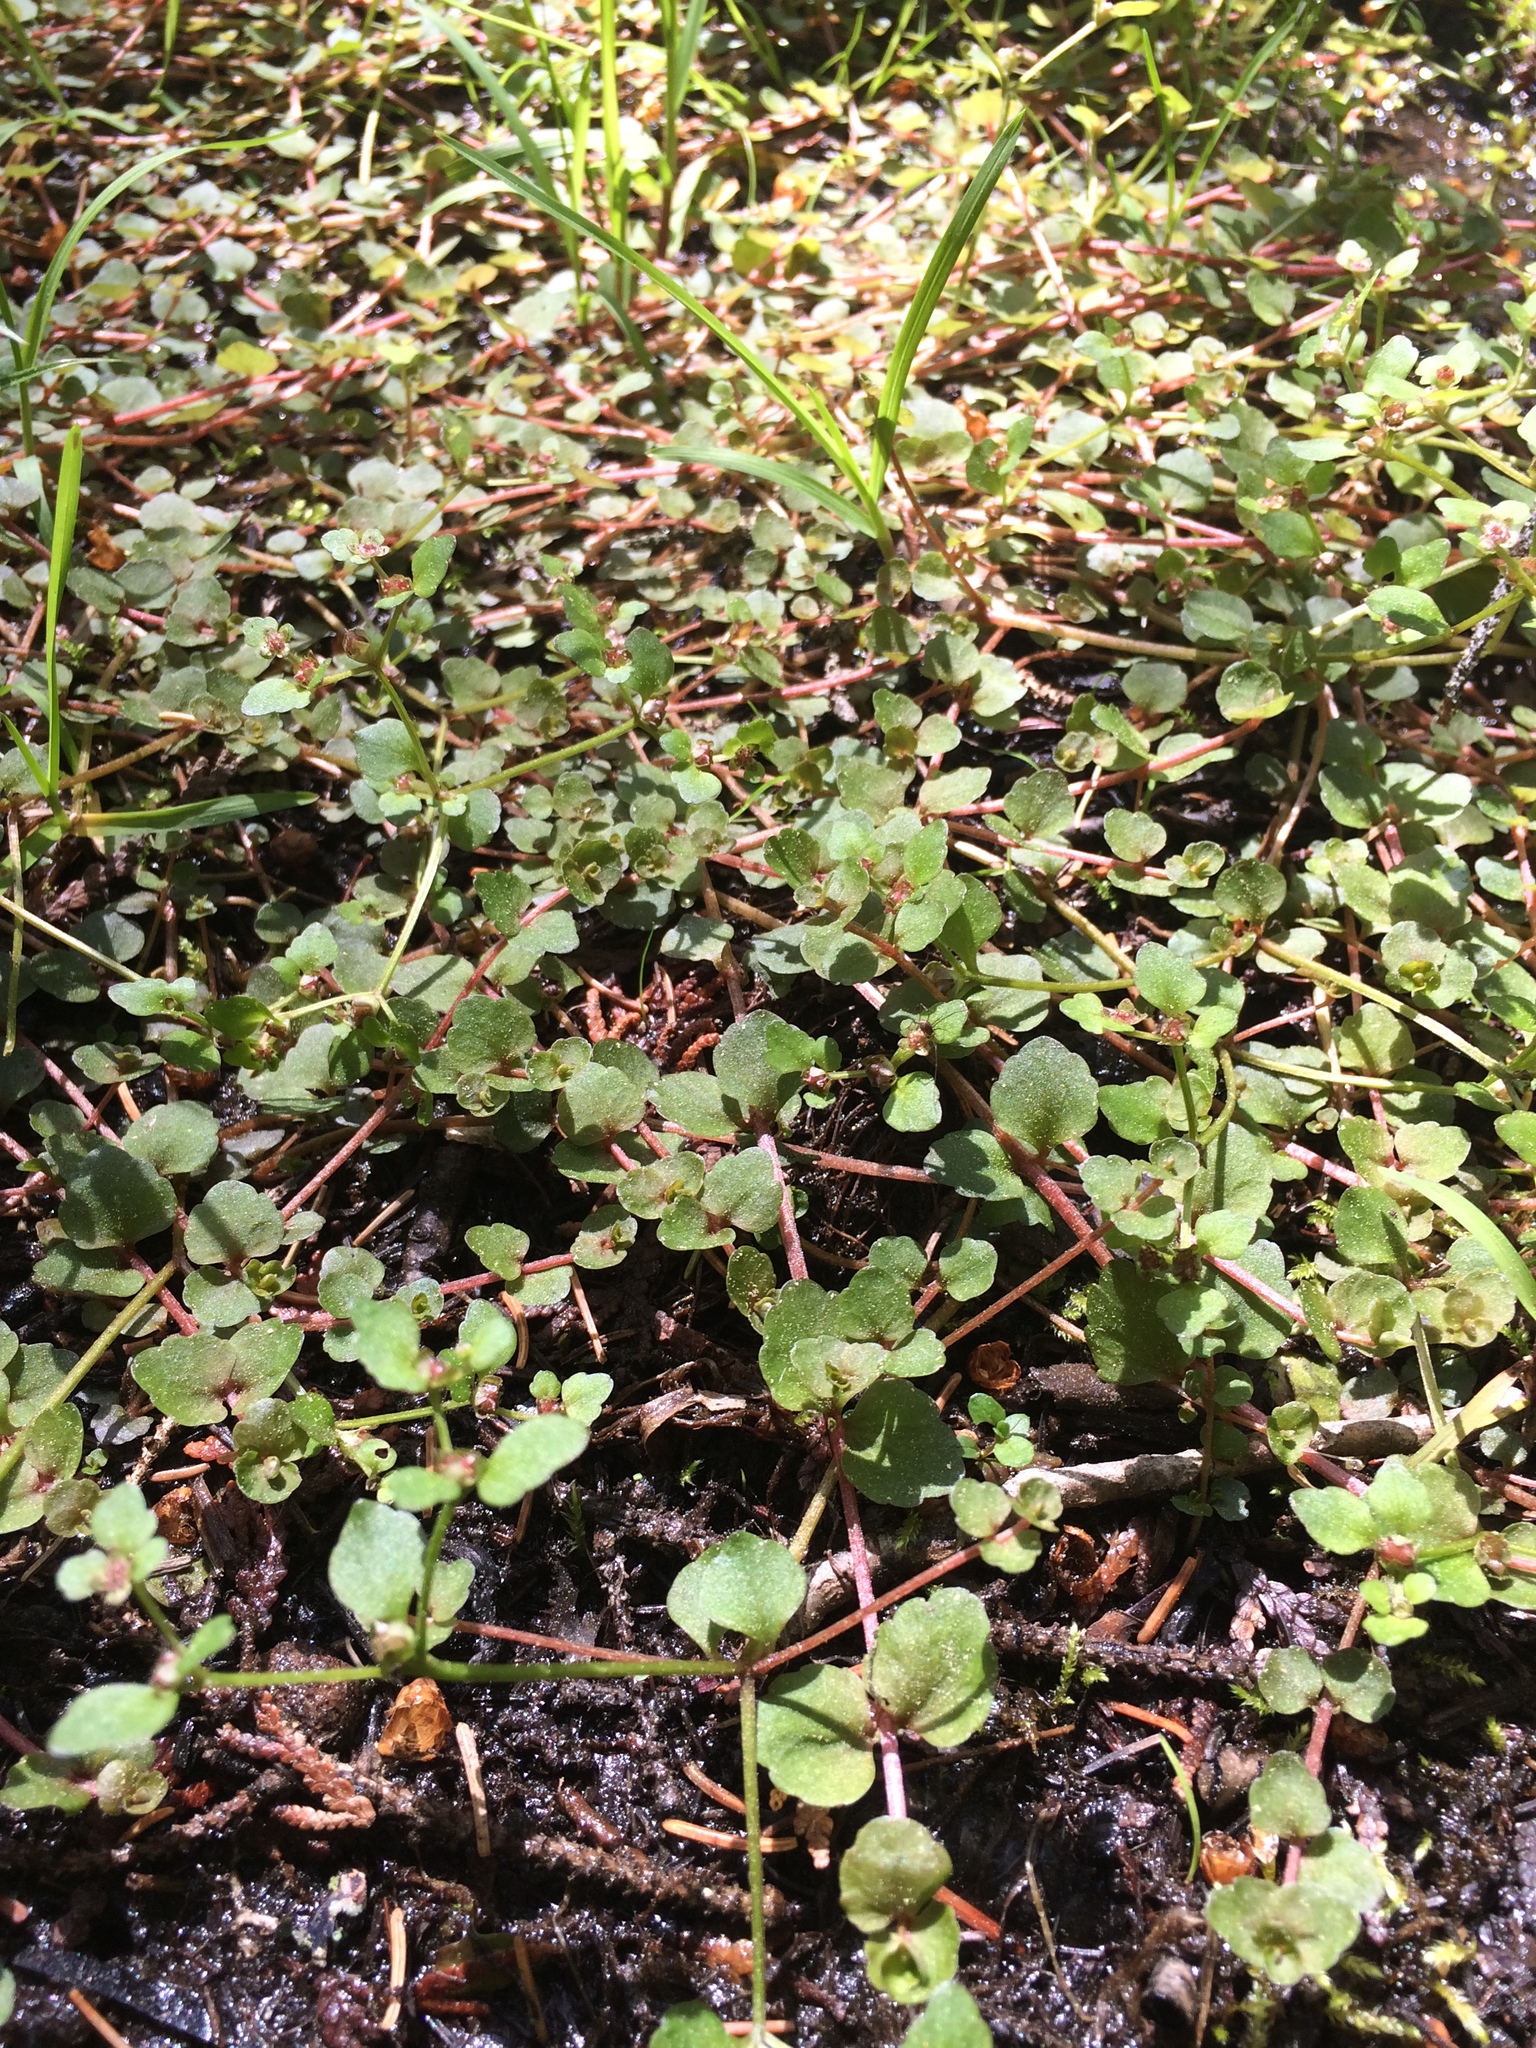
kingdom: Plantae
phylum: Tracheophyta
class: Magnoliopsida
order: Saxifragales
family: Saxifragaceae
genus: Chrysosplenium
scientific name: Chrysosplenium americanum
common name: American golden-saxifrage
